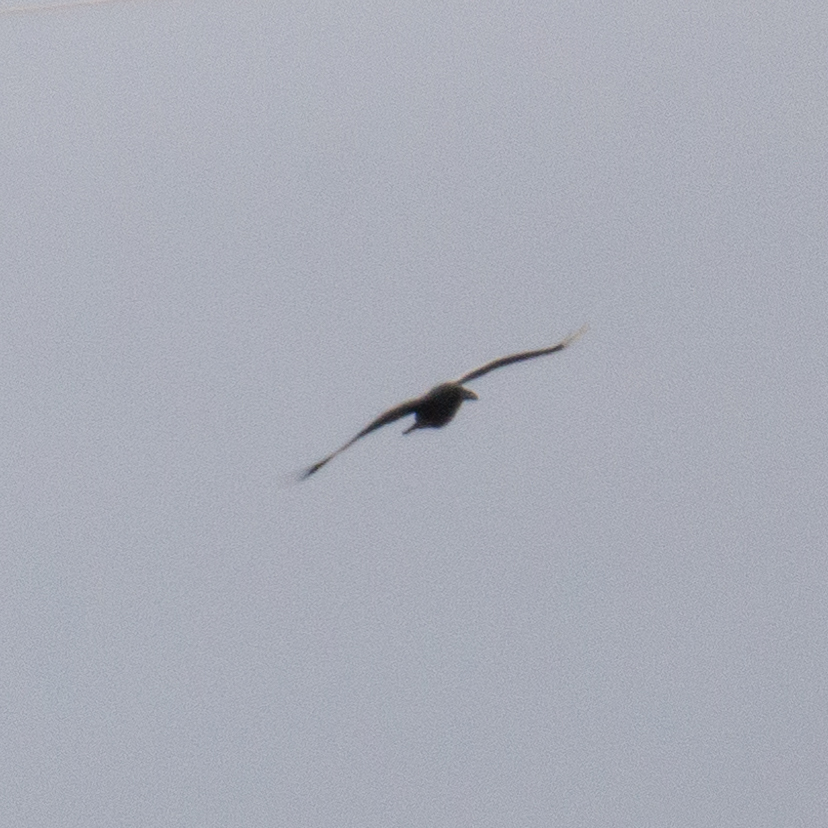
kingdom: Animalia
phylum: Chordata
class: Aves
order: Passeriformes
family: Corvidae
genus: Corvus
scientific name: Corvus corax
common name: Common raven
